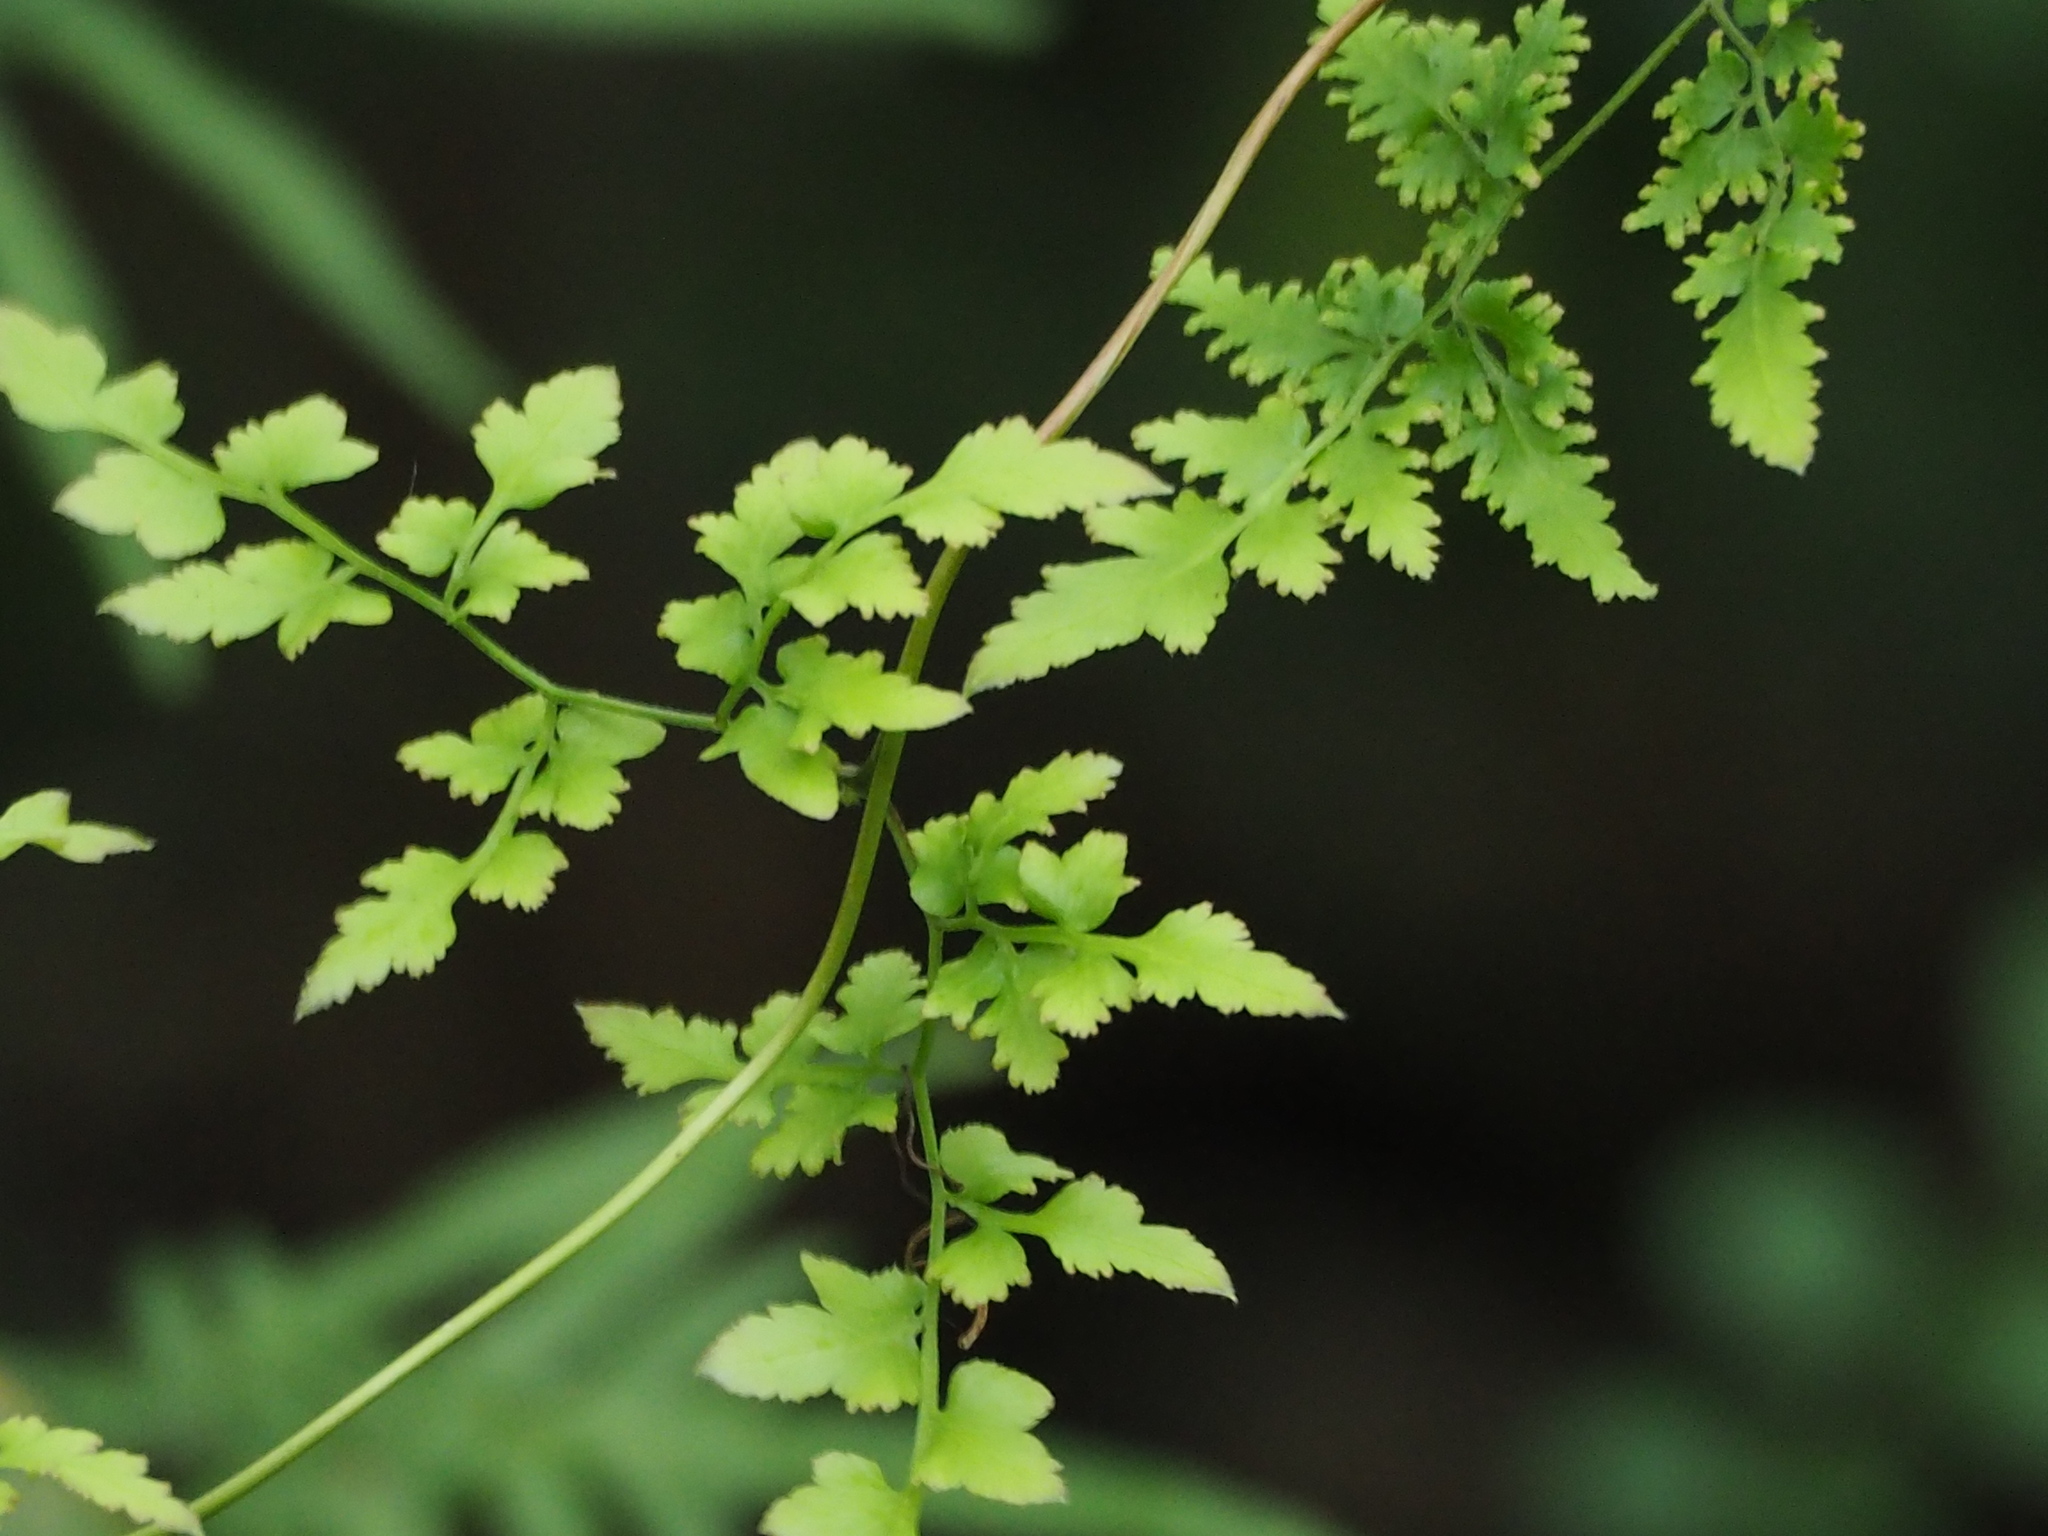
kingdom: Plantae
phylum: Tracheophyta
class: Polypodiopsida
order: Schizaeales
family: Lygodiaceae
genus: Lygodium
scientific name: Lygodium japonicum
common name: Japanese climbing fern
